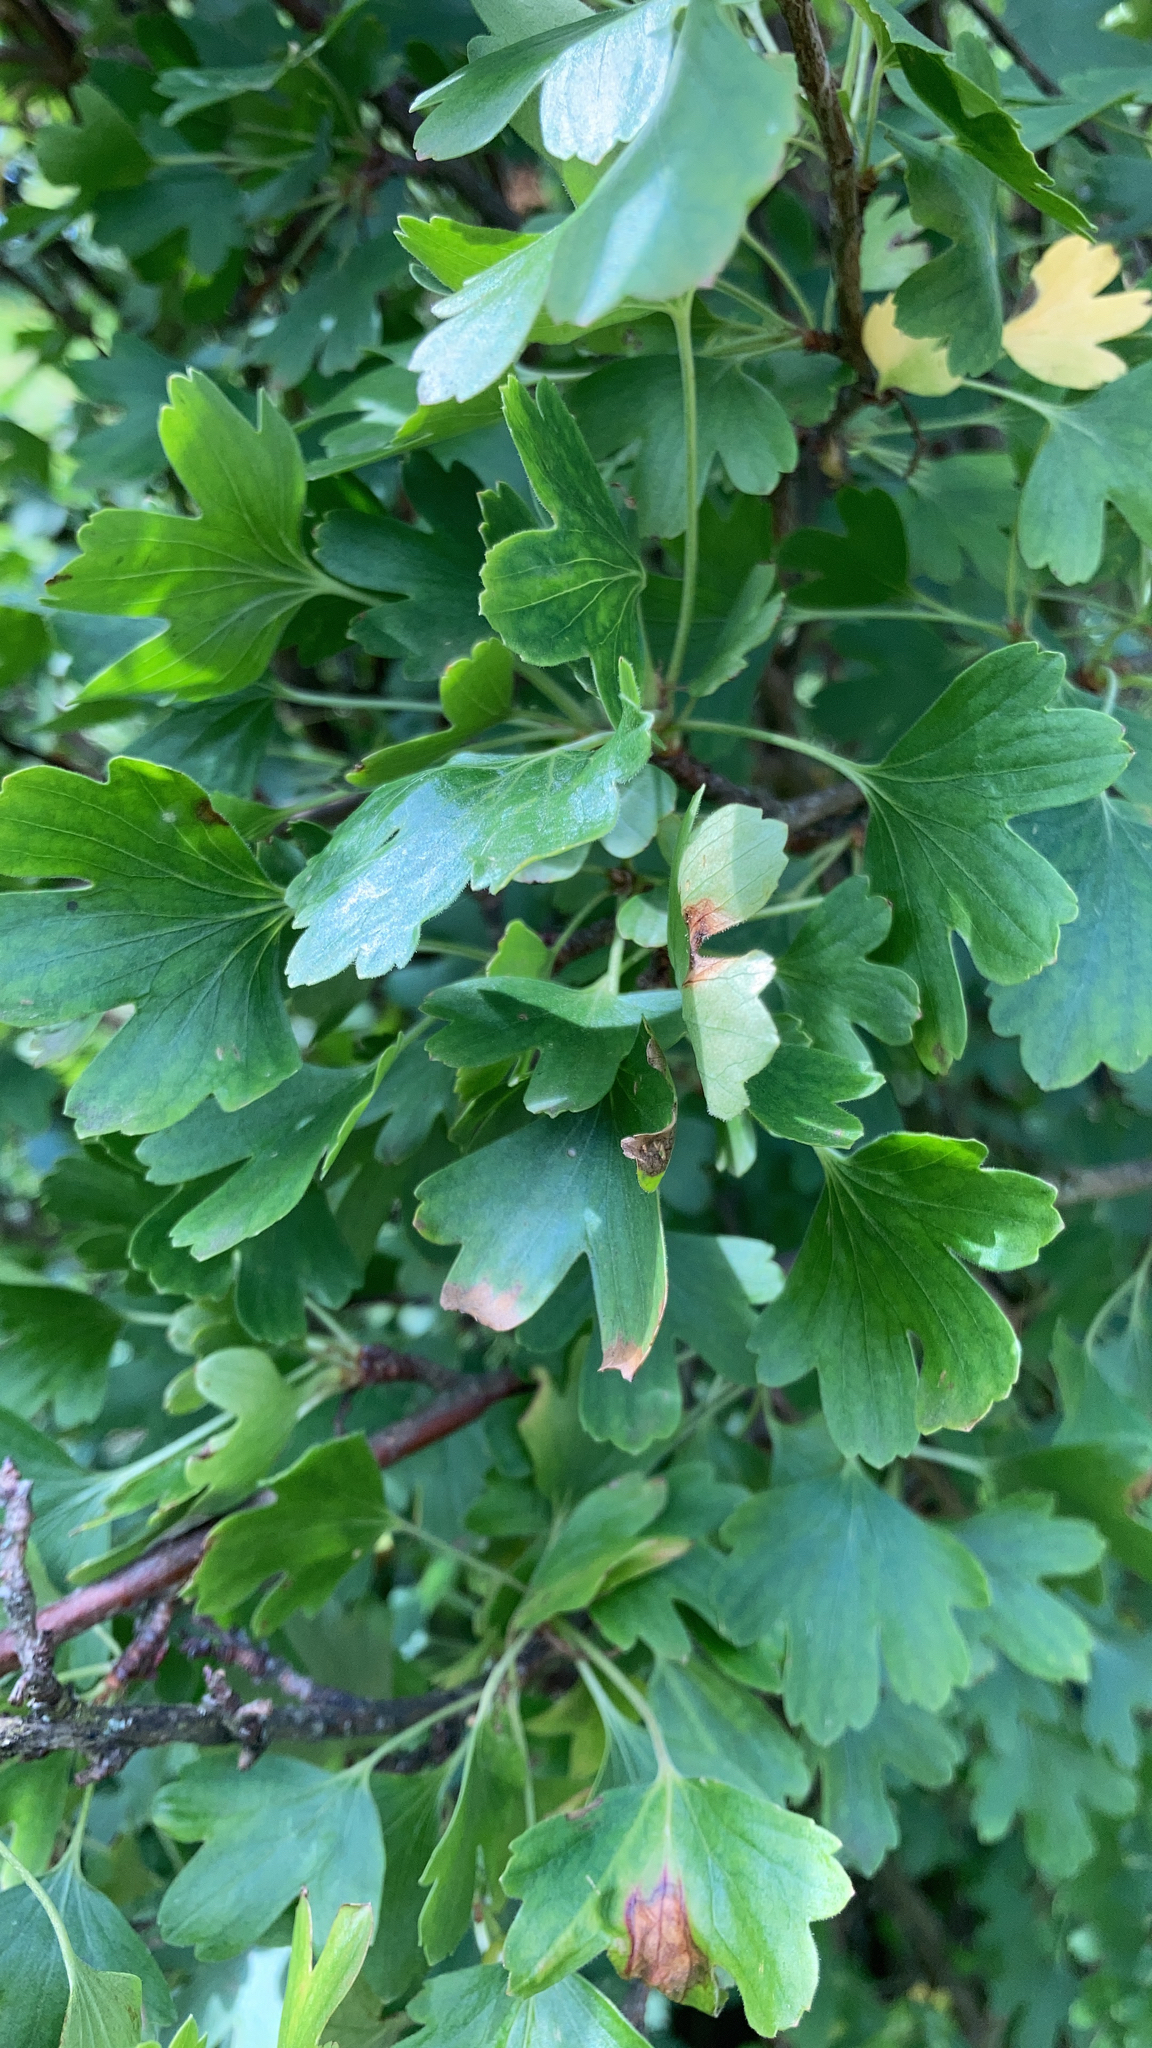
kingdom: Plantae
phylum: Tracheophyta
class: Magnoliopsida
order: Saxifragales
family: Grossulariaceae
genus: Ribes
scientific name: Ribes aureum
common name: Golden currant
